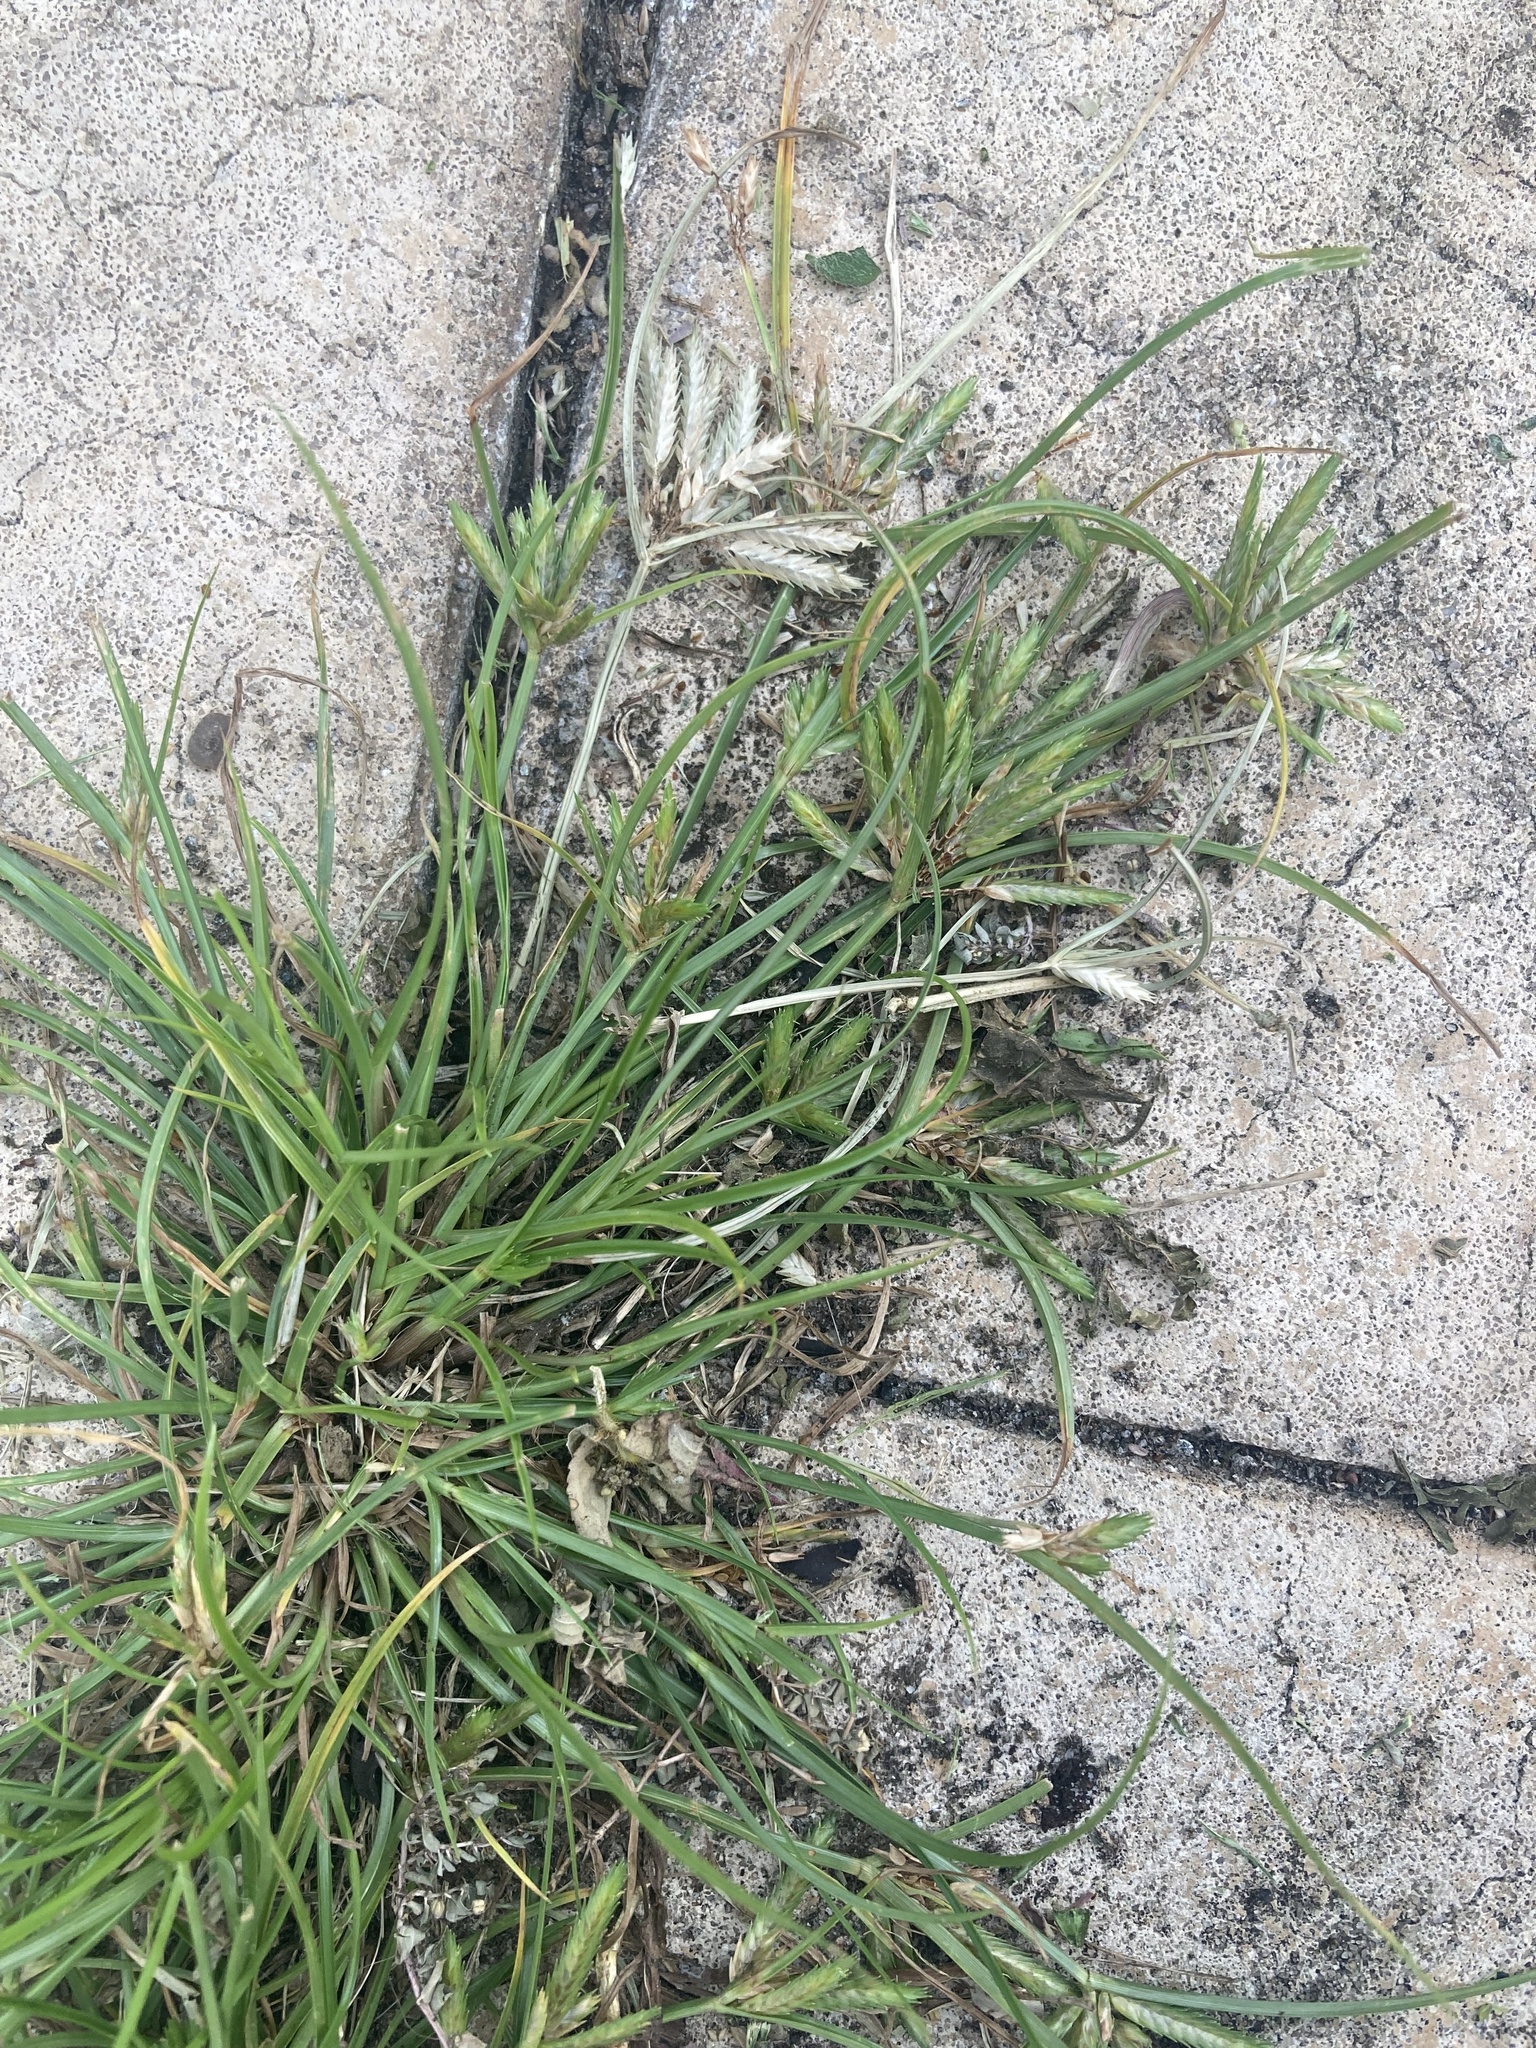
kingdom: Plantae
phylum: Tracheophyta
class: Liliopsida
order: Poales
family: Cyperaceae
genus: Cyperus
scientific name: Cyperus compressus
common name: Poorland flatsedge
